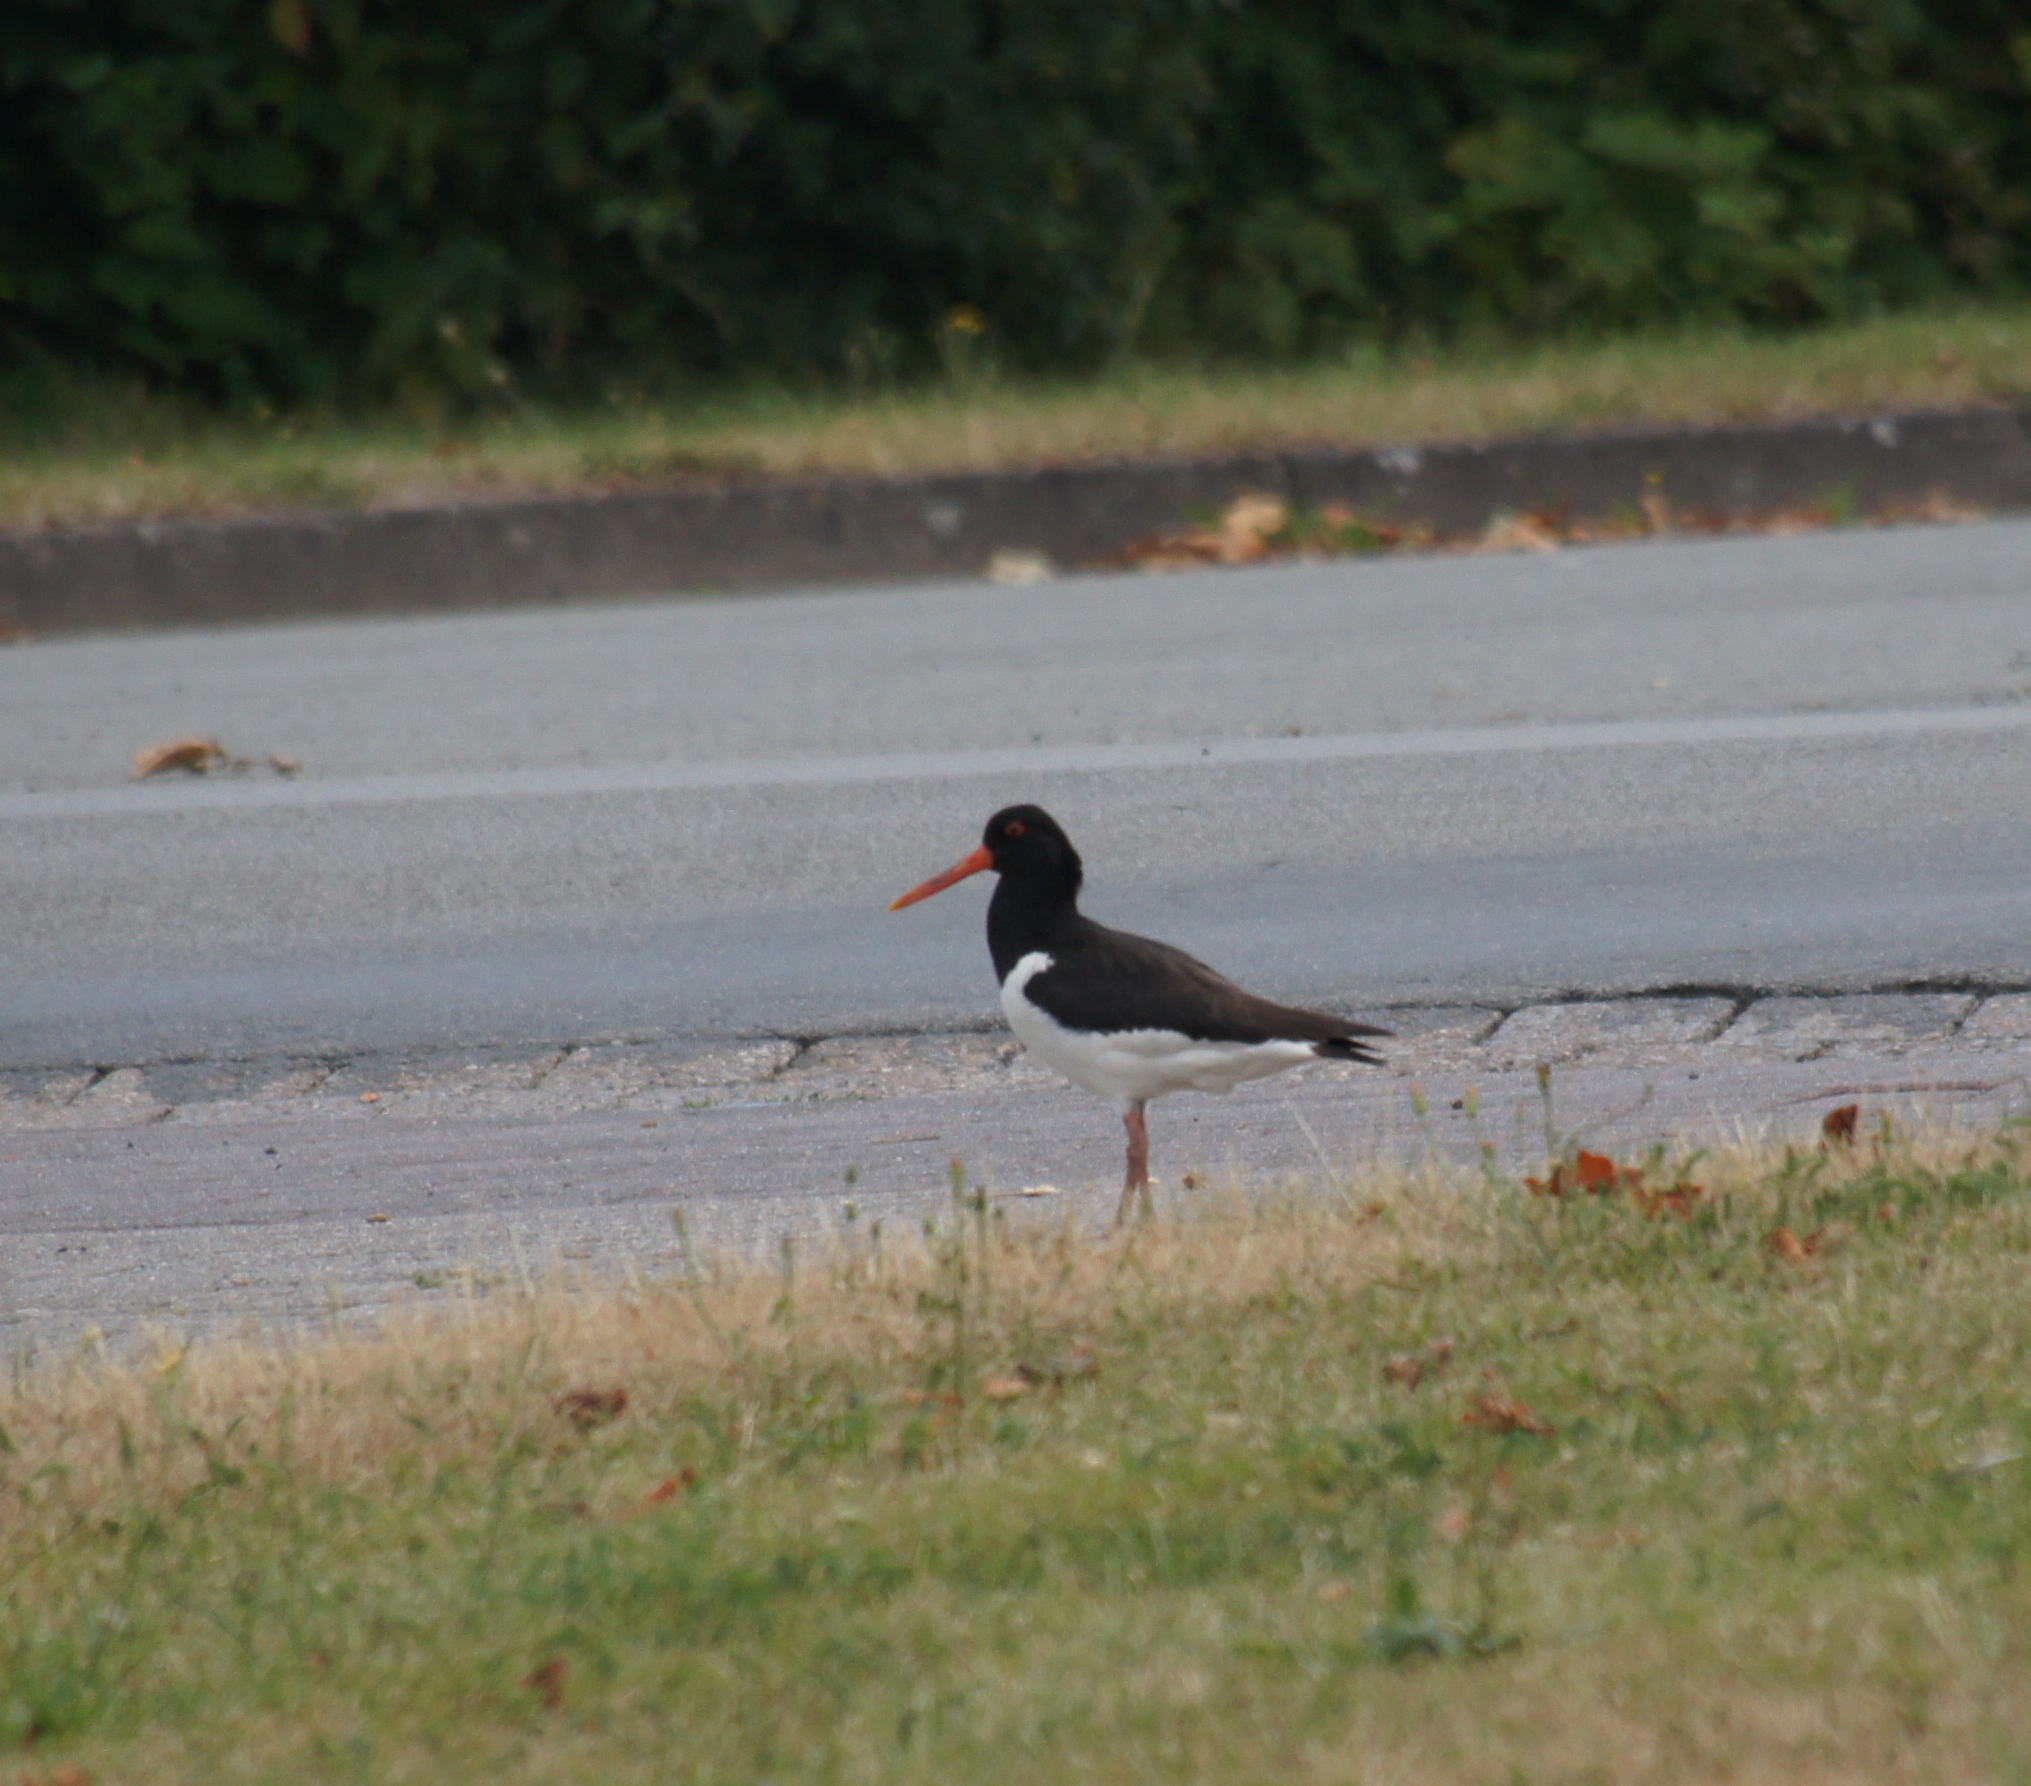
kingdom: Animalia
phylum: Chordata
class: Aves
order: Charadriiformes
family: Haematopodidae
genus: Haematopus
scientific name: Haematopus ostralegus
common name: Eurasian oystercatcher
